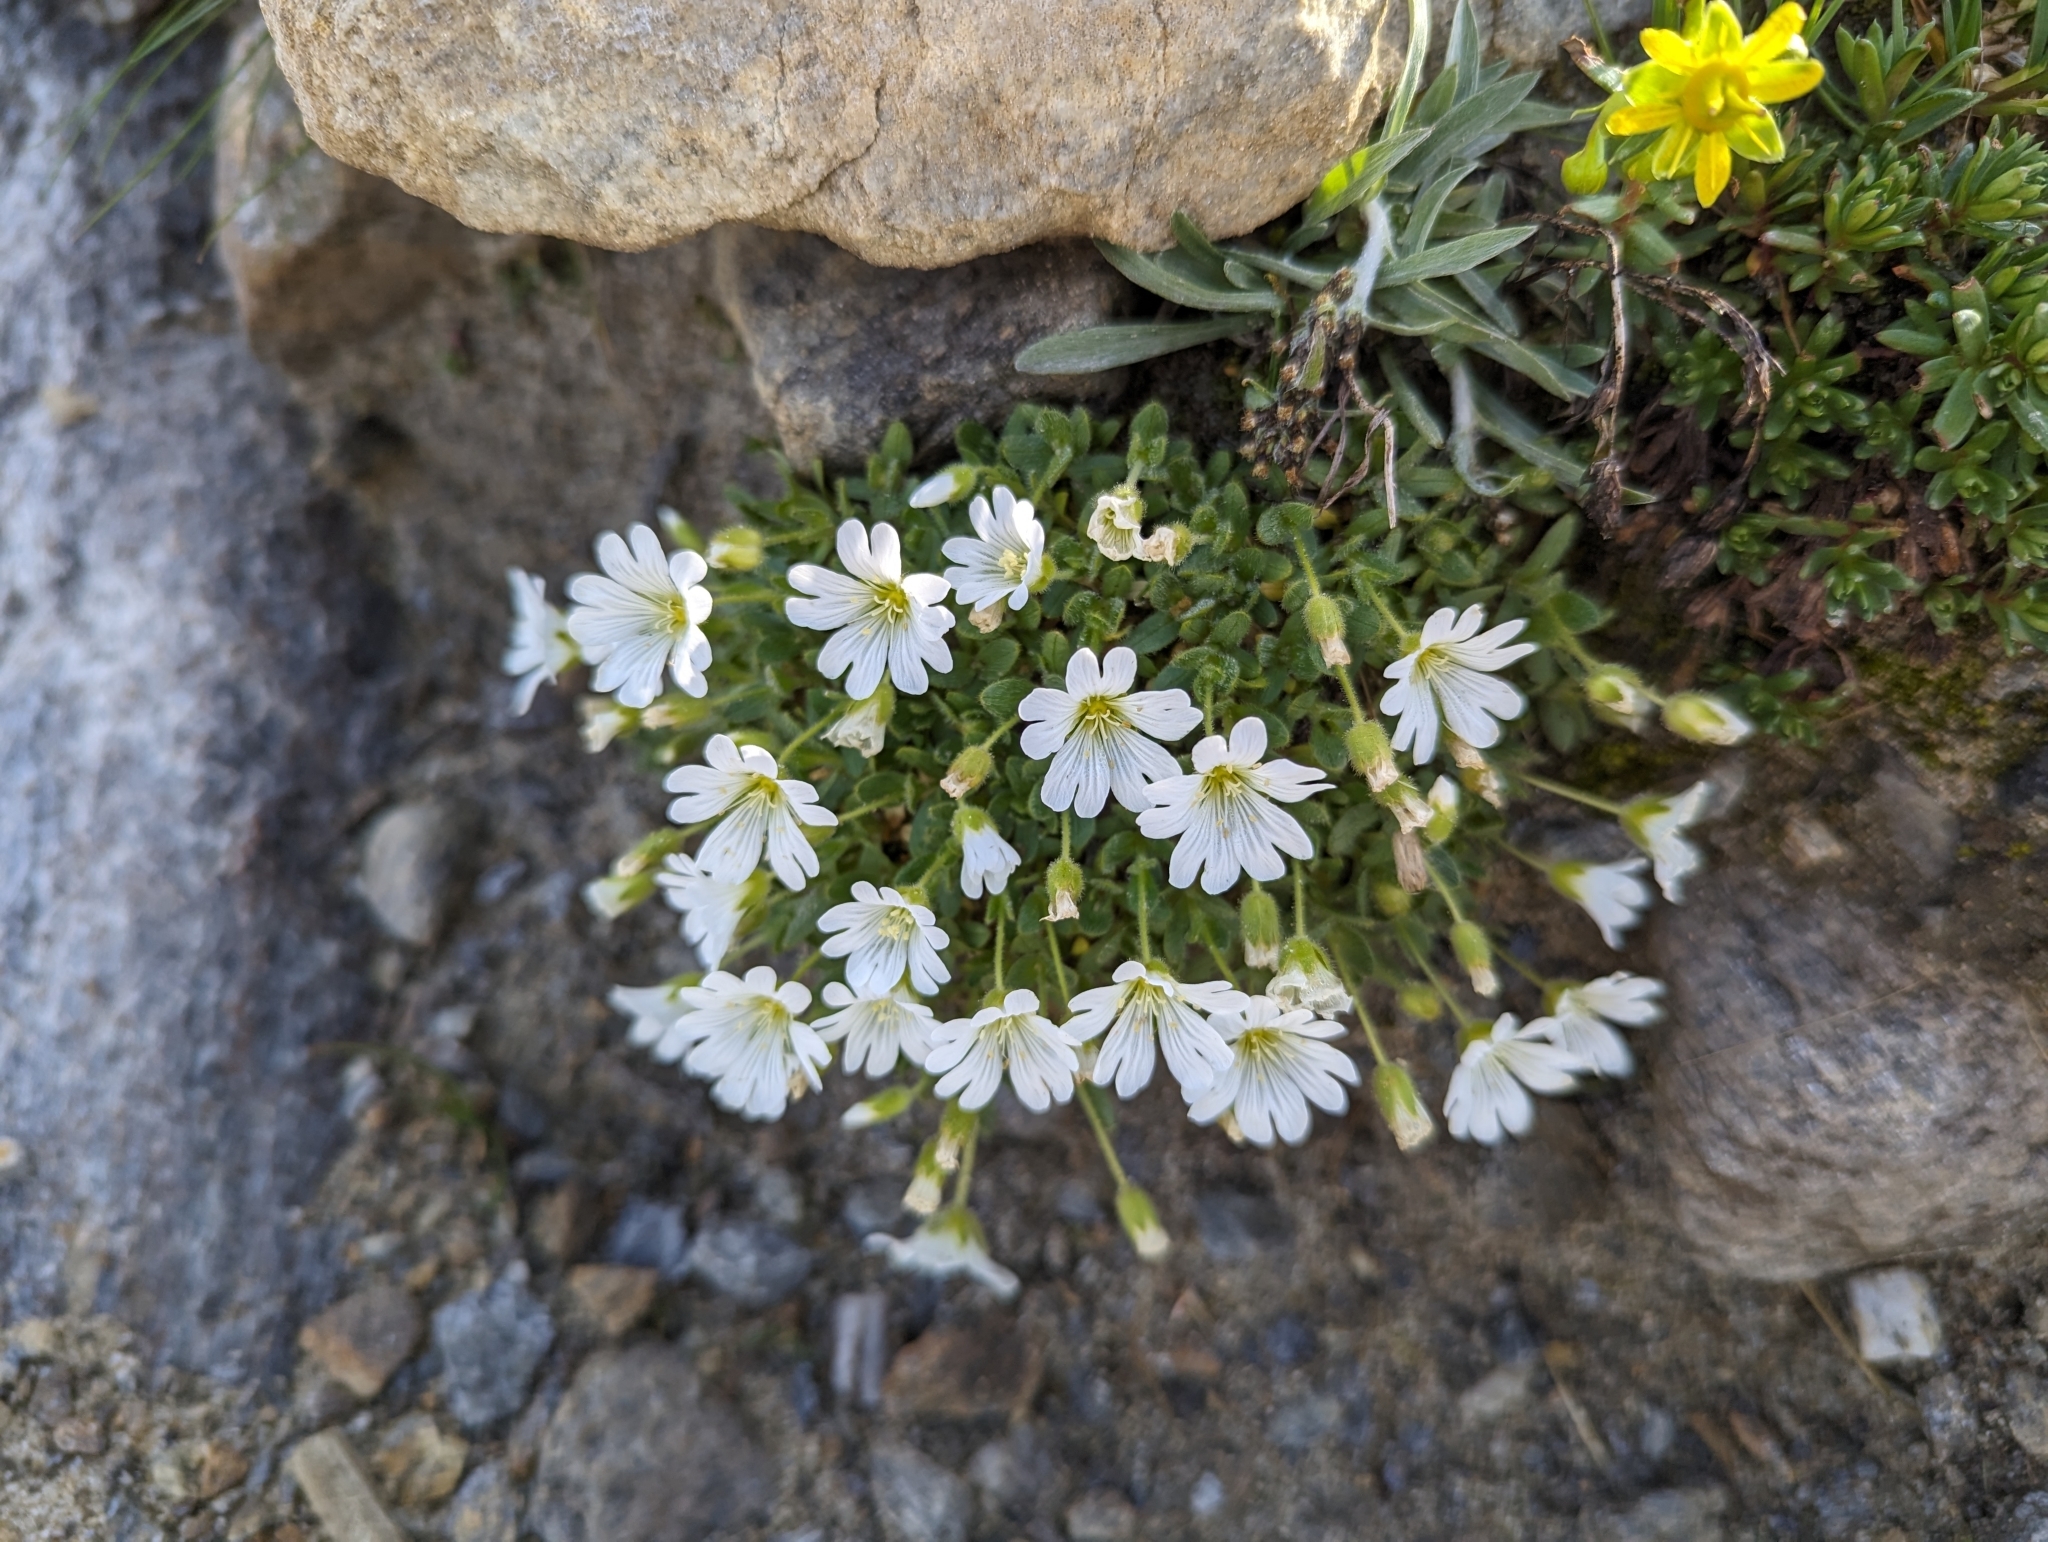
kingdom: Plantae
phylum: Tracheophyta
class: Magnoliopsida
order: Caryophyllales
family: Caryophyllaceae
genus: Cerastium
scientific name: Cerastium uniflorum
